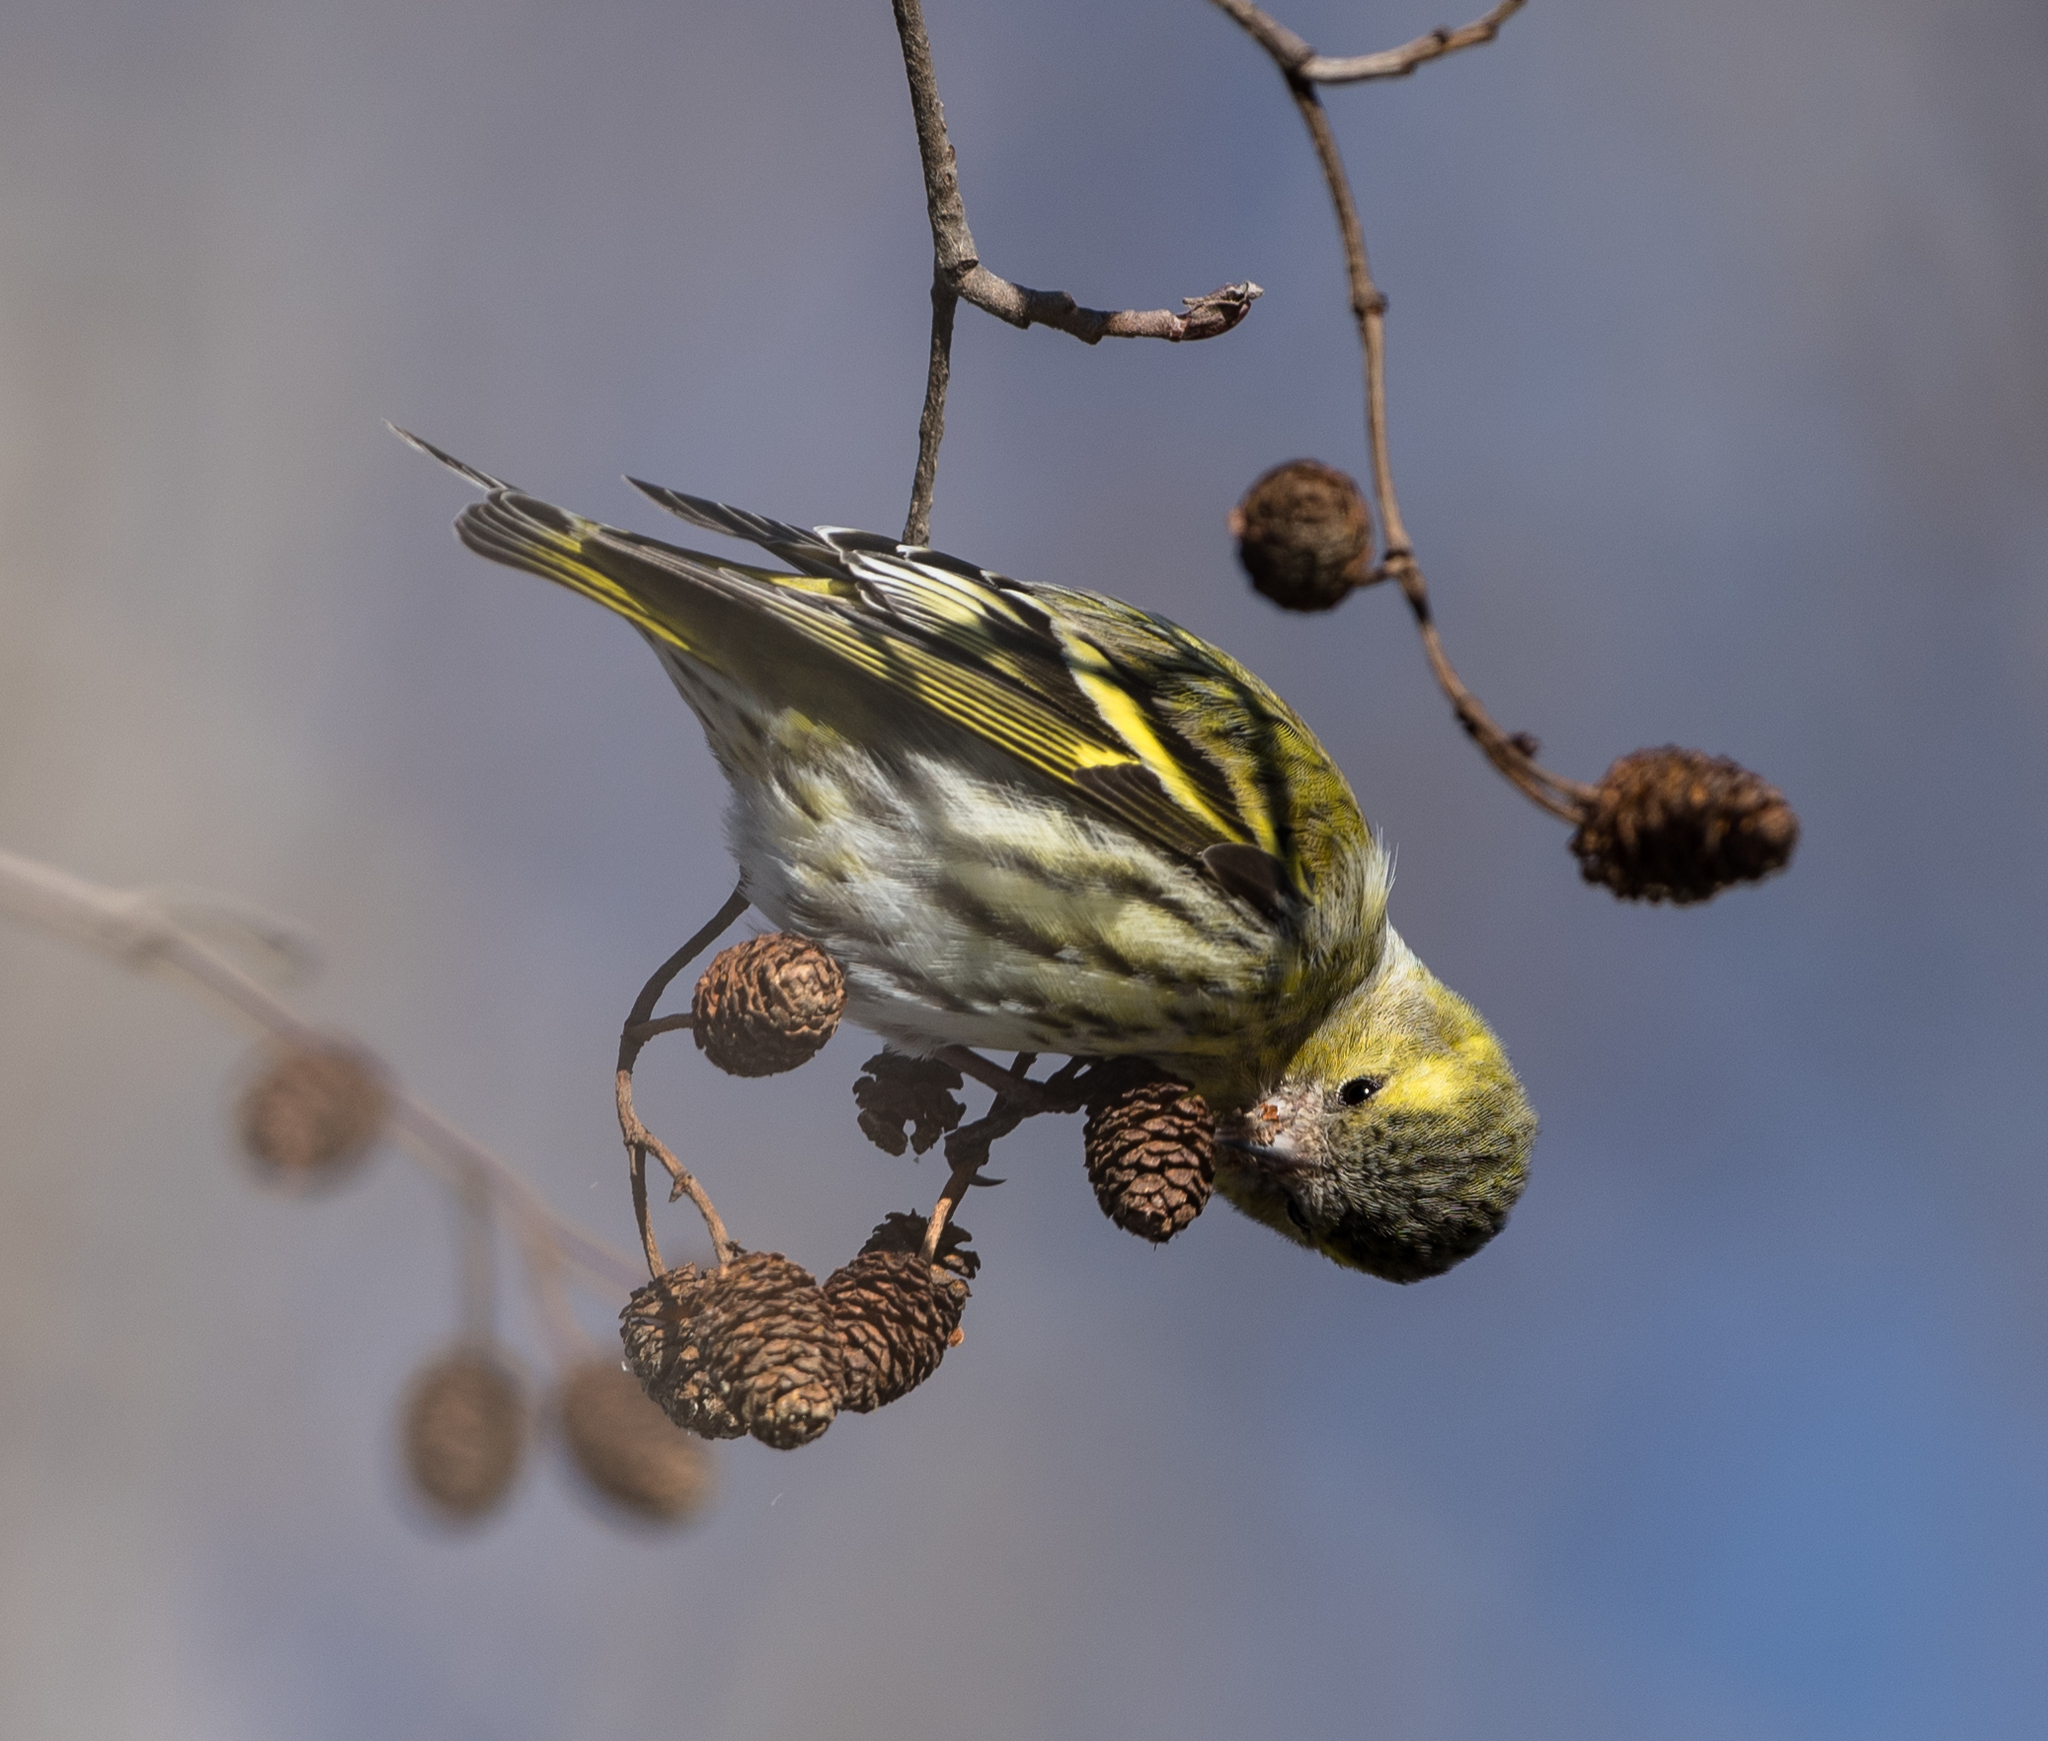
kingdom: Animalia
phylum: Chordata
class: Aves
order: Passeriformes
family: Fringillidae
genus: Spinus
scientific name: Spinus spinus
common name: Eurasian siskin
